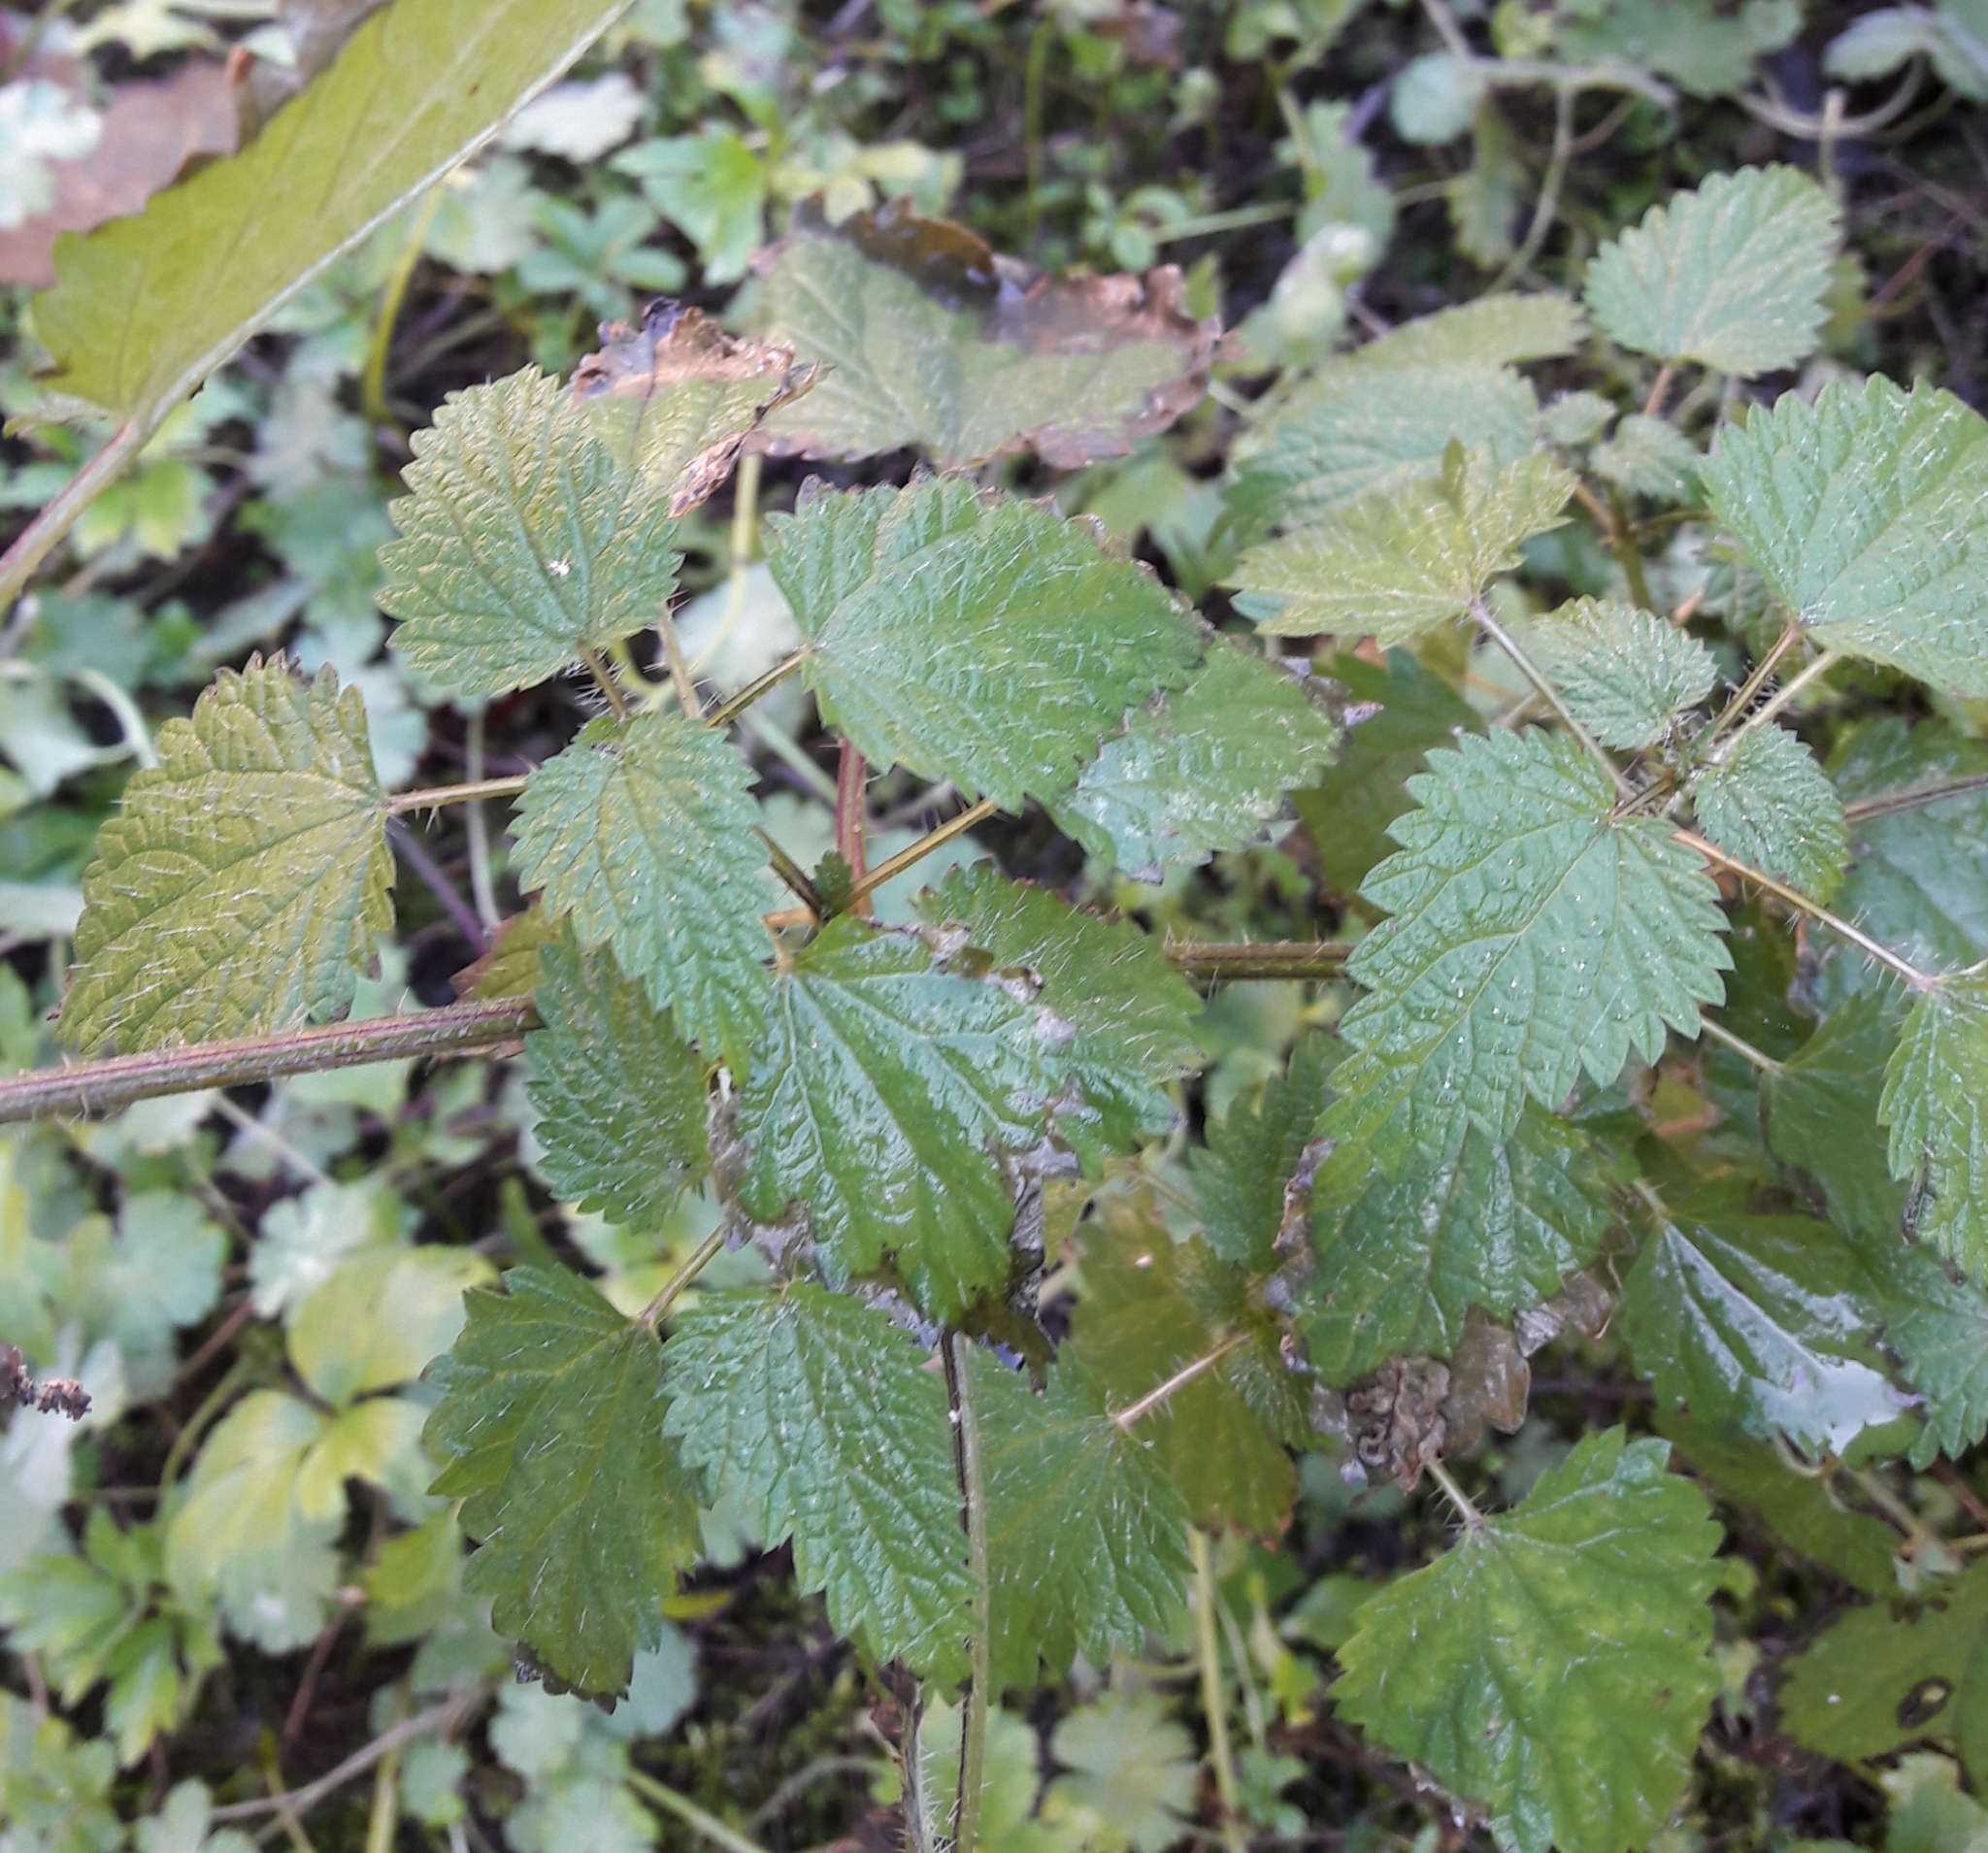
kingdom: Plantae
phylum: Tracheophyta
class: Magnoliopsida
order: Rosales
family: Urticaceae
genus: Urtica
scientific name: Urtica dioica
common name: Common nettle
